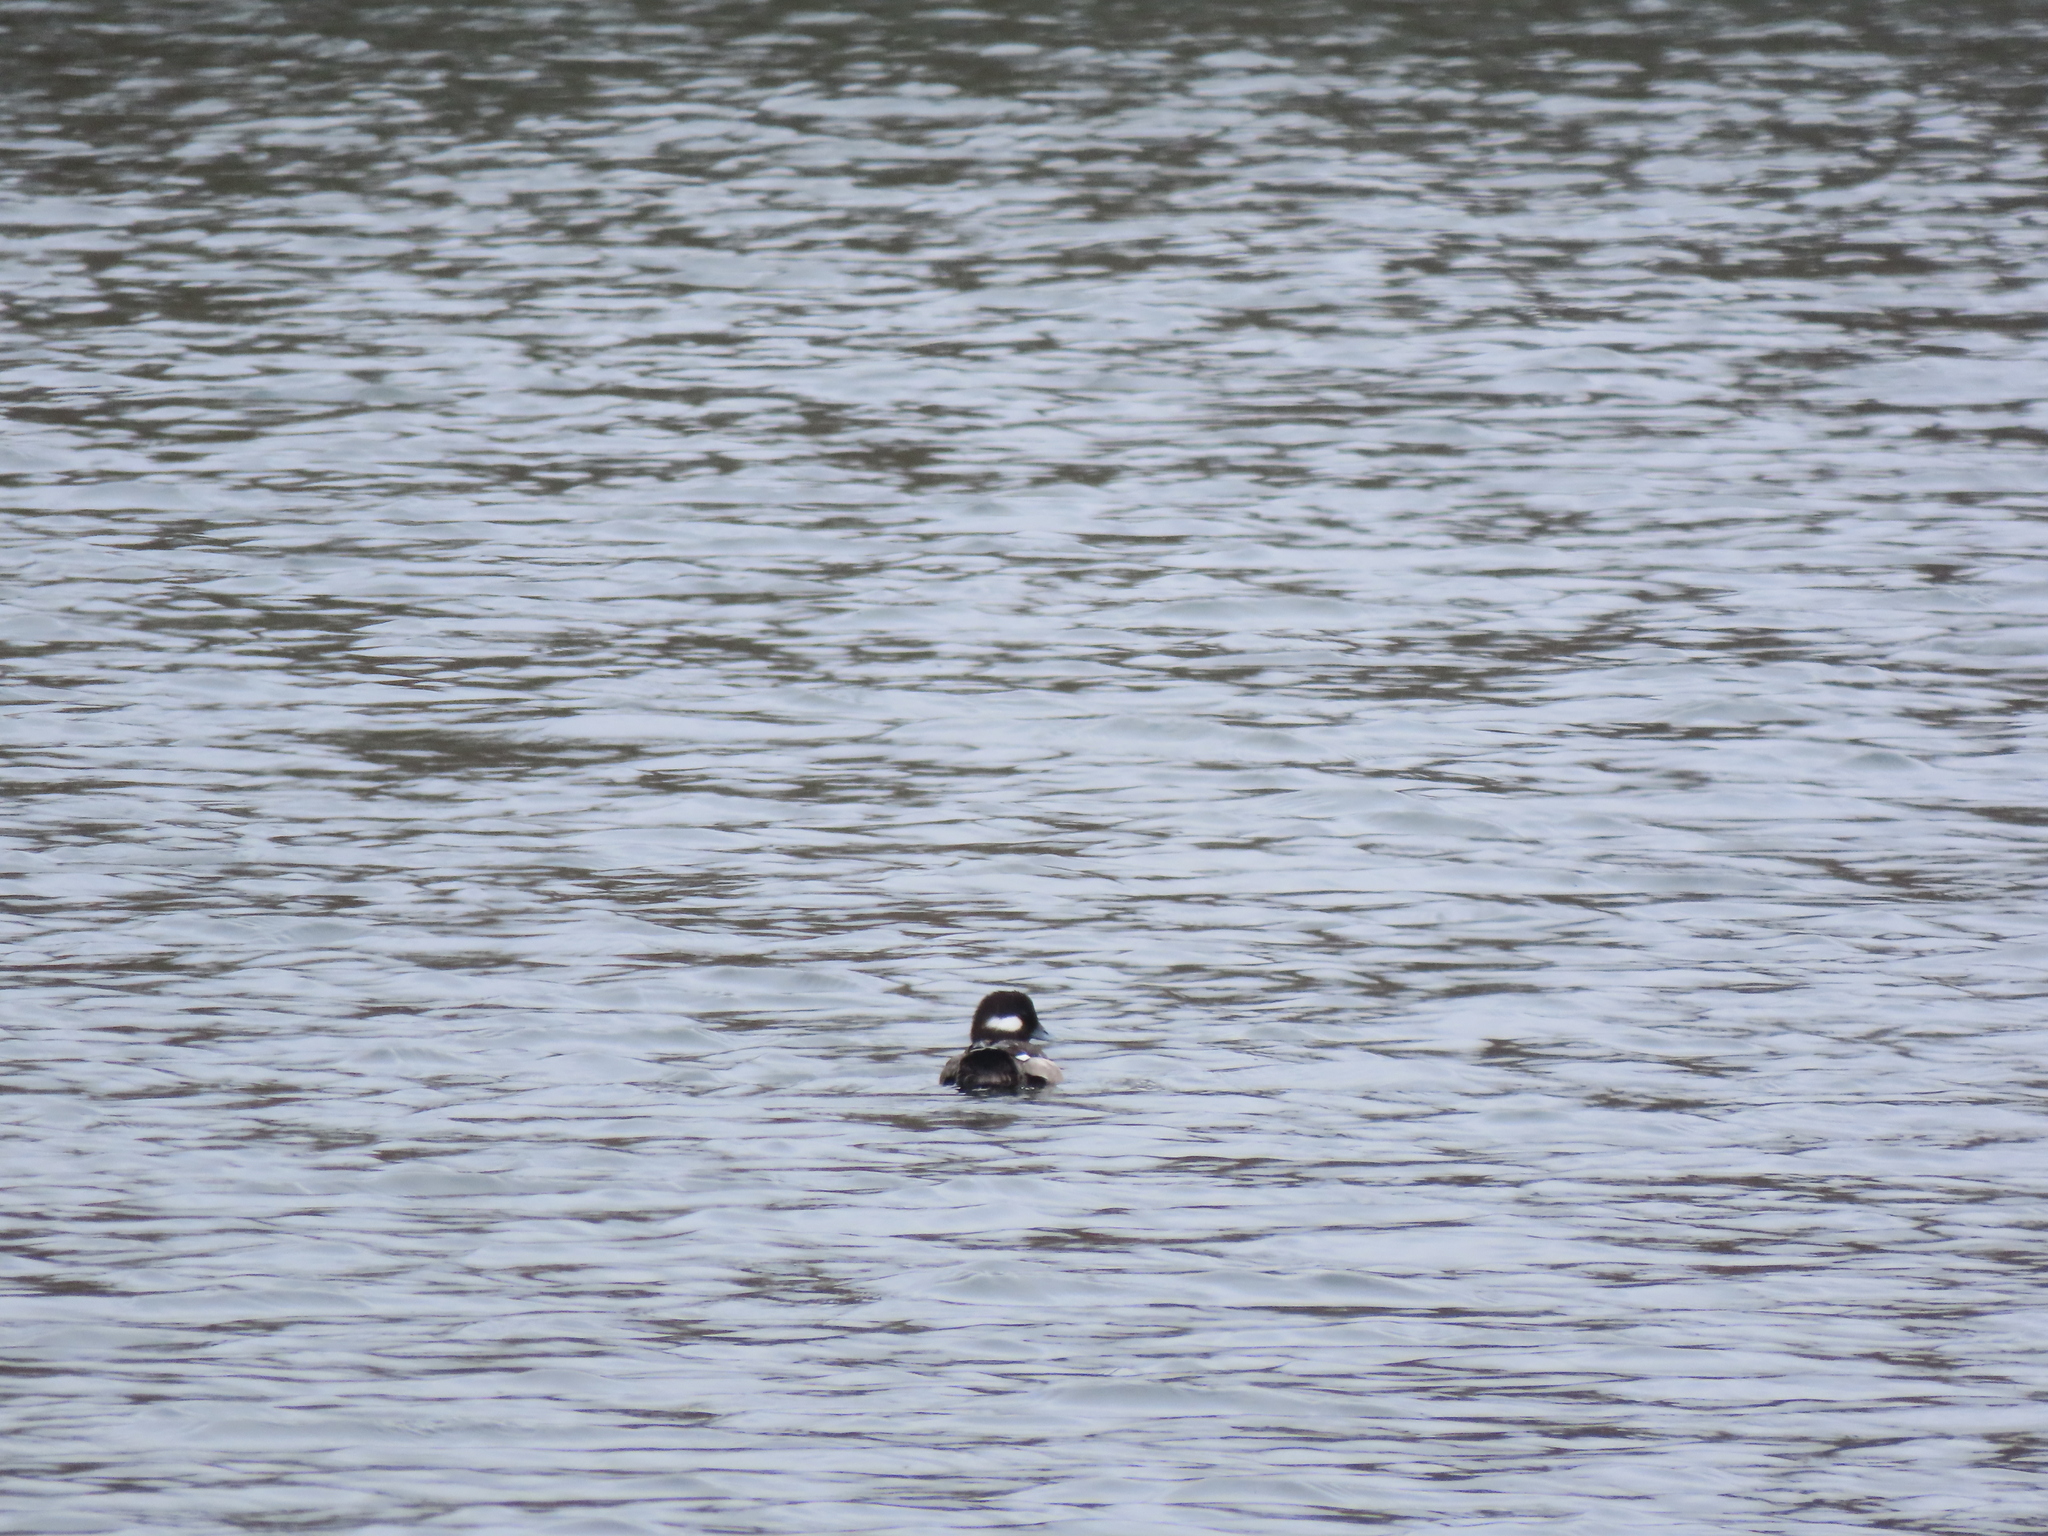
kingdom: Animalia
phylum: Chordata
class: Aves
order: Anseriformes
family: Anatidae
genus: Bucephala
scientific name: Bucephala albeola
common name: Bufflehead
